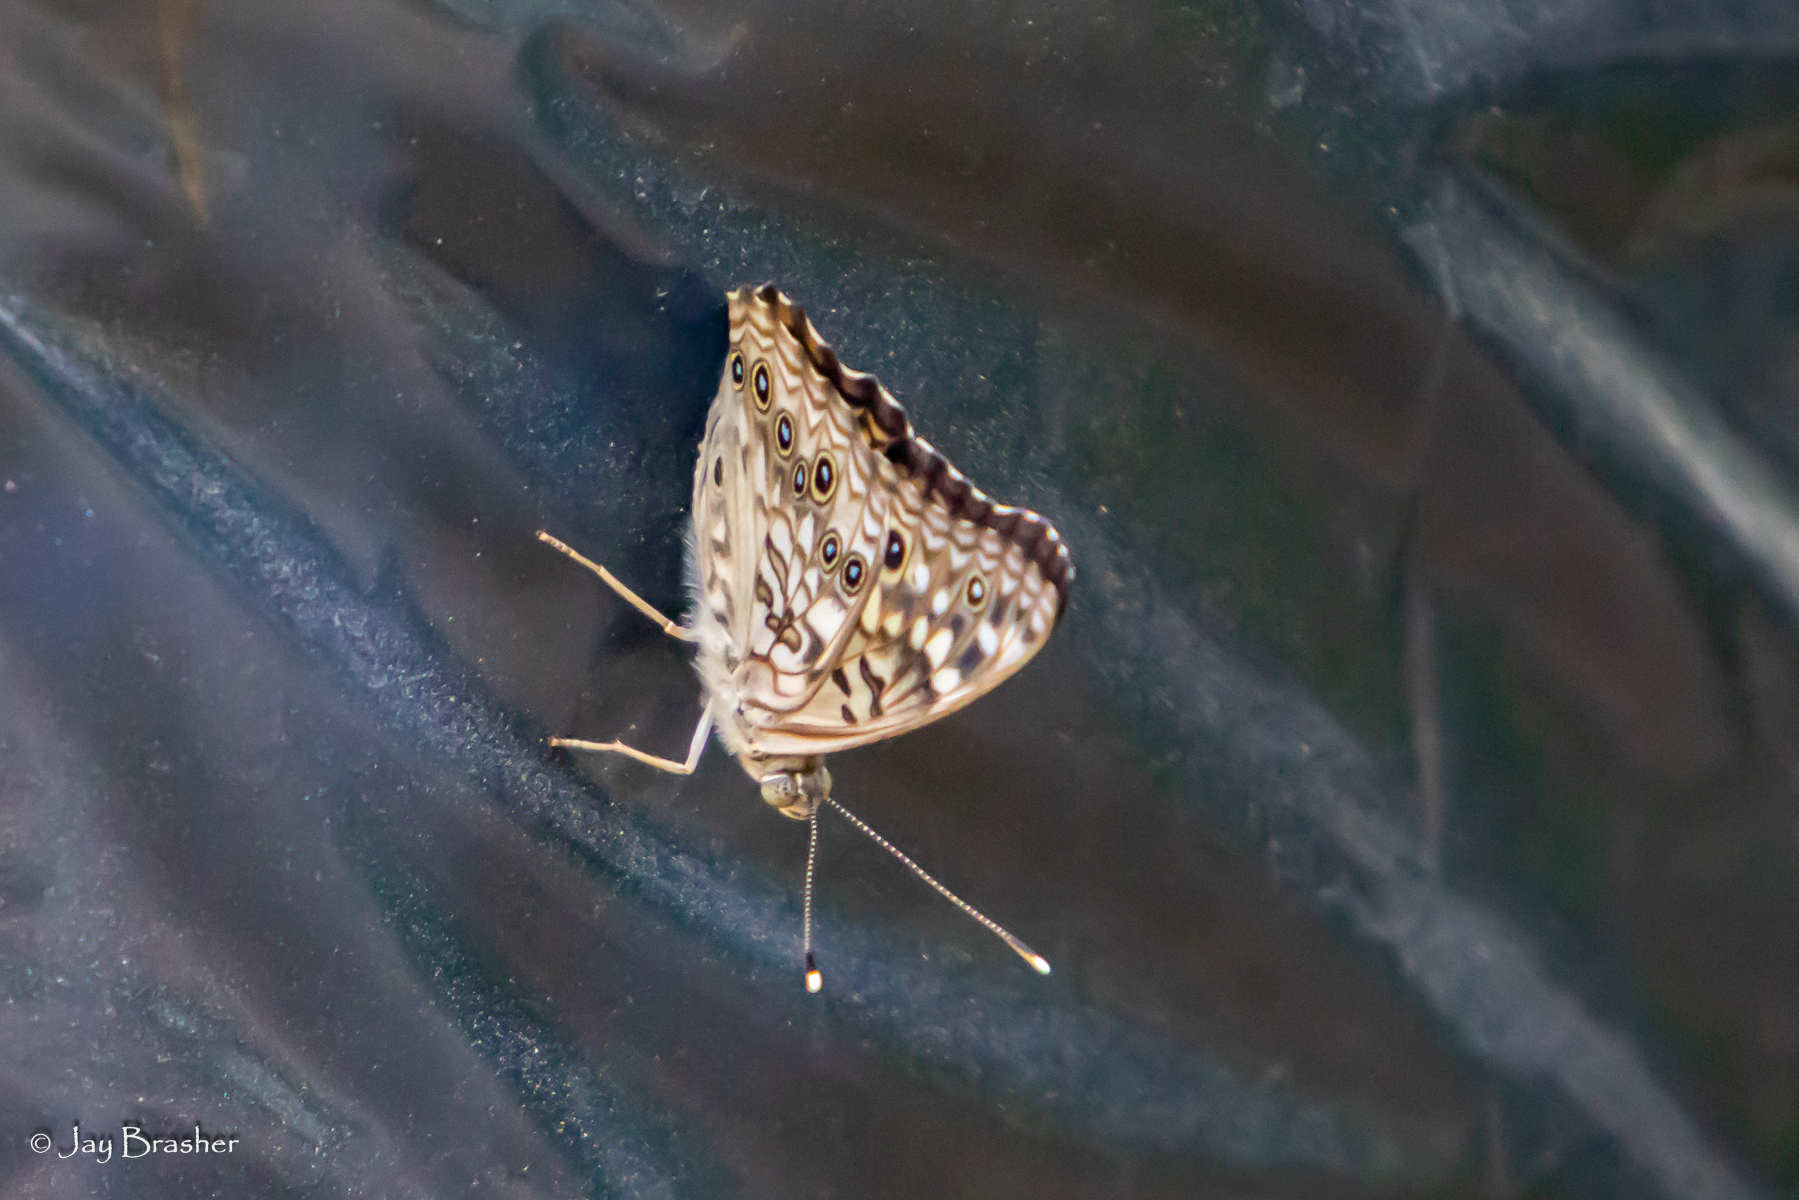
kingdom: Animalia
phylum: Arthropoda
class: Insecta
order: Lepidoptera
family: Nymphalidae
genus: Asterocampa
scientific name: Asterocampa celtis
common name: Hackberry emperor
